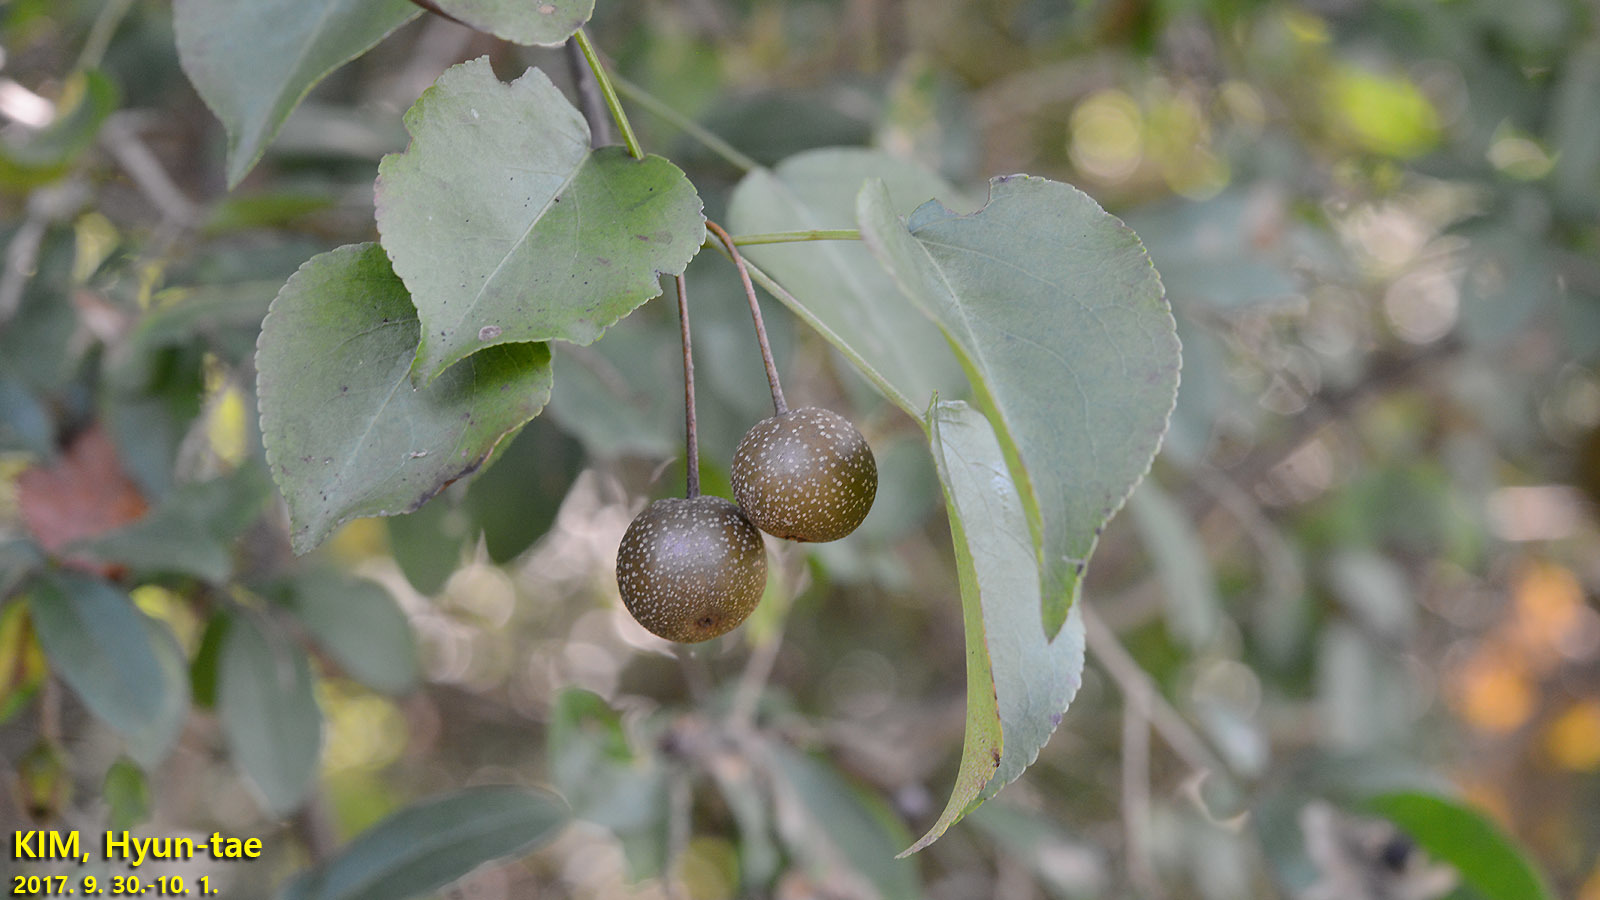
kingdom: Plantae
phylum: Tracheophyta
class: Magnoliopsida
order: Rosales
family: Rosaceae
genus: Pyrus
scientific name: Pyrus calleryana
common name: Callery pear
